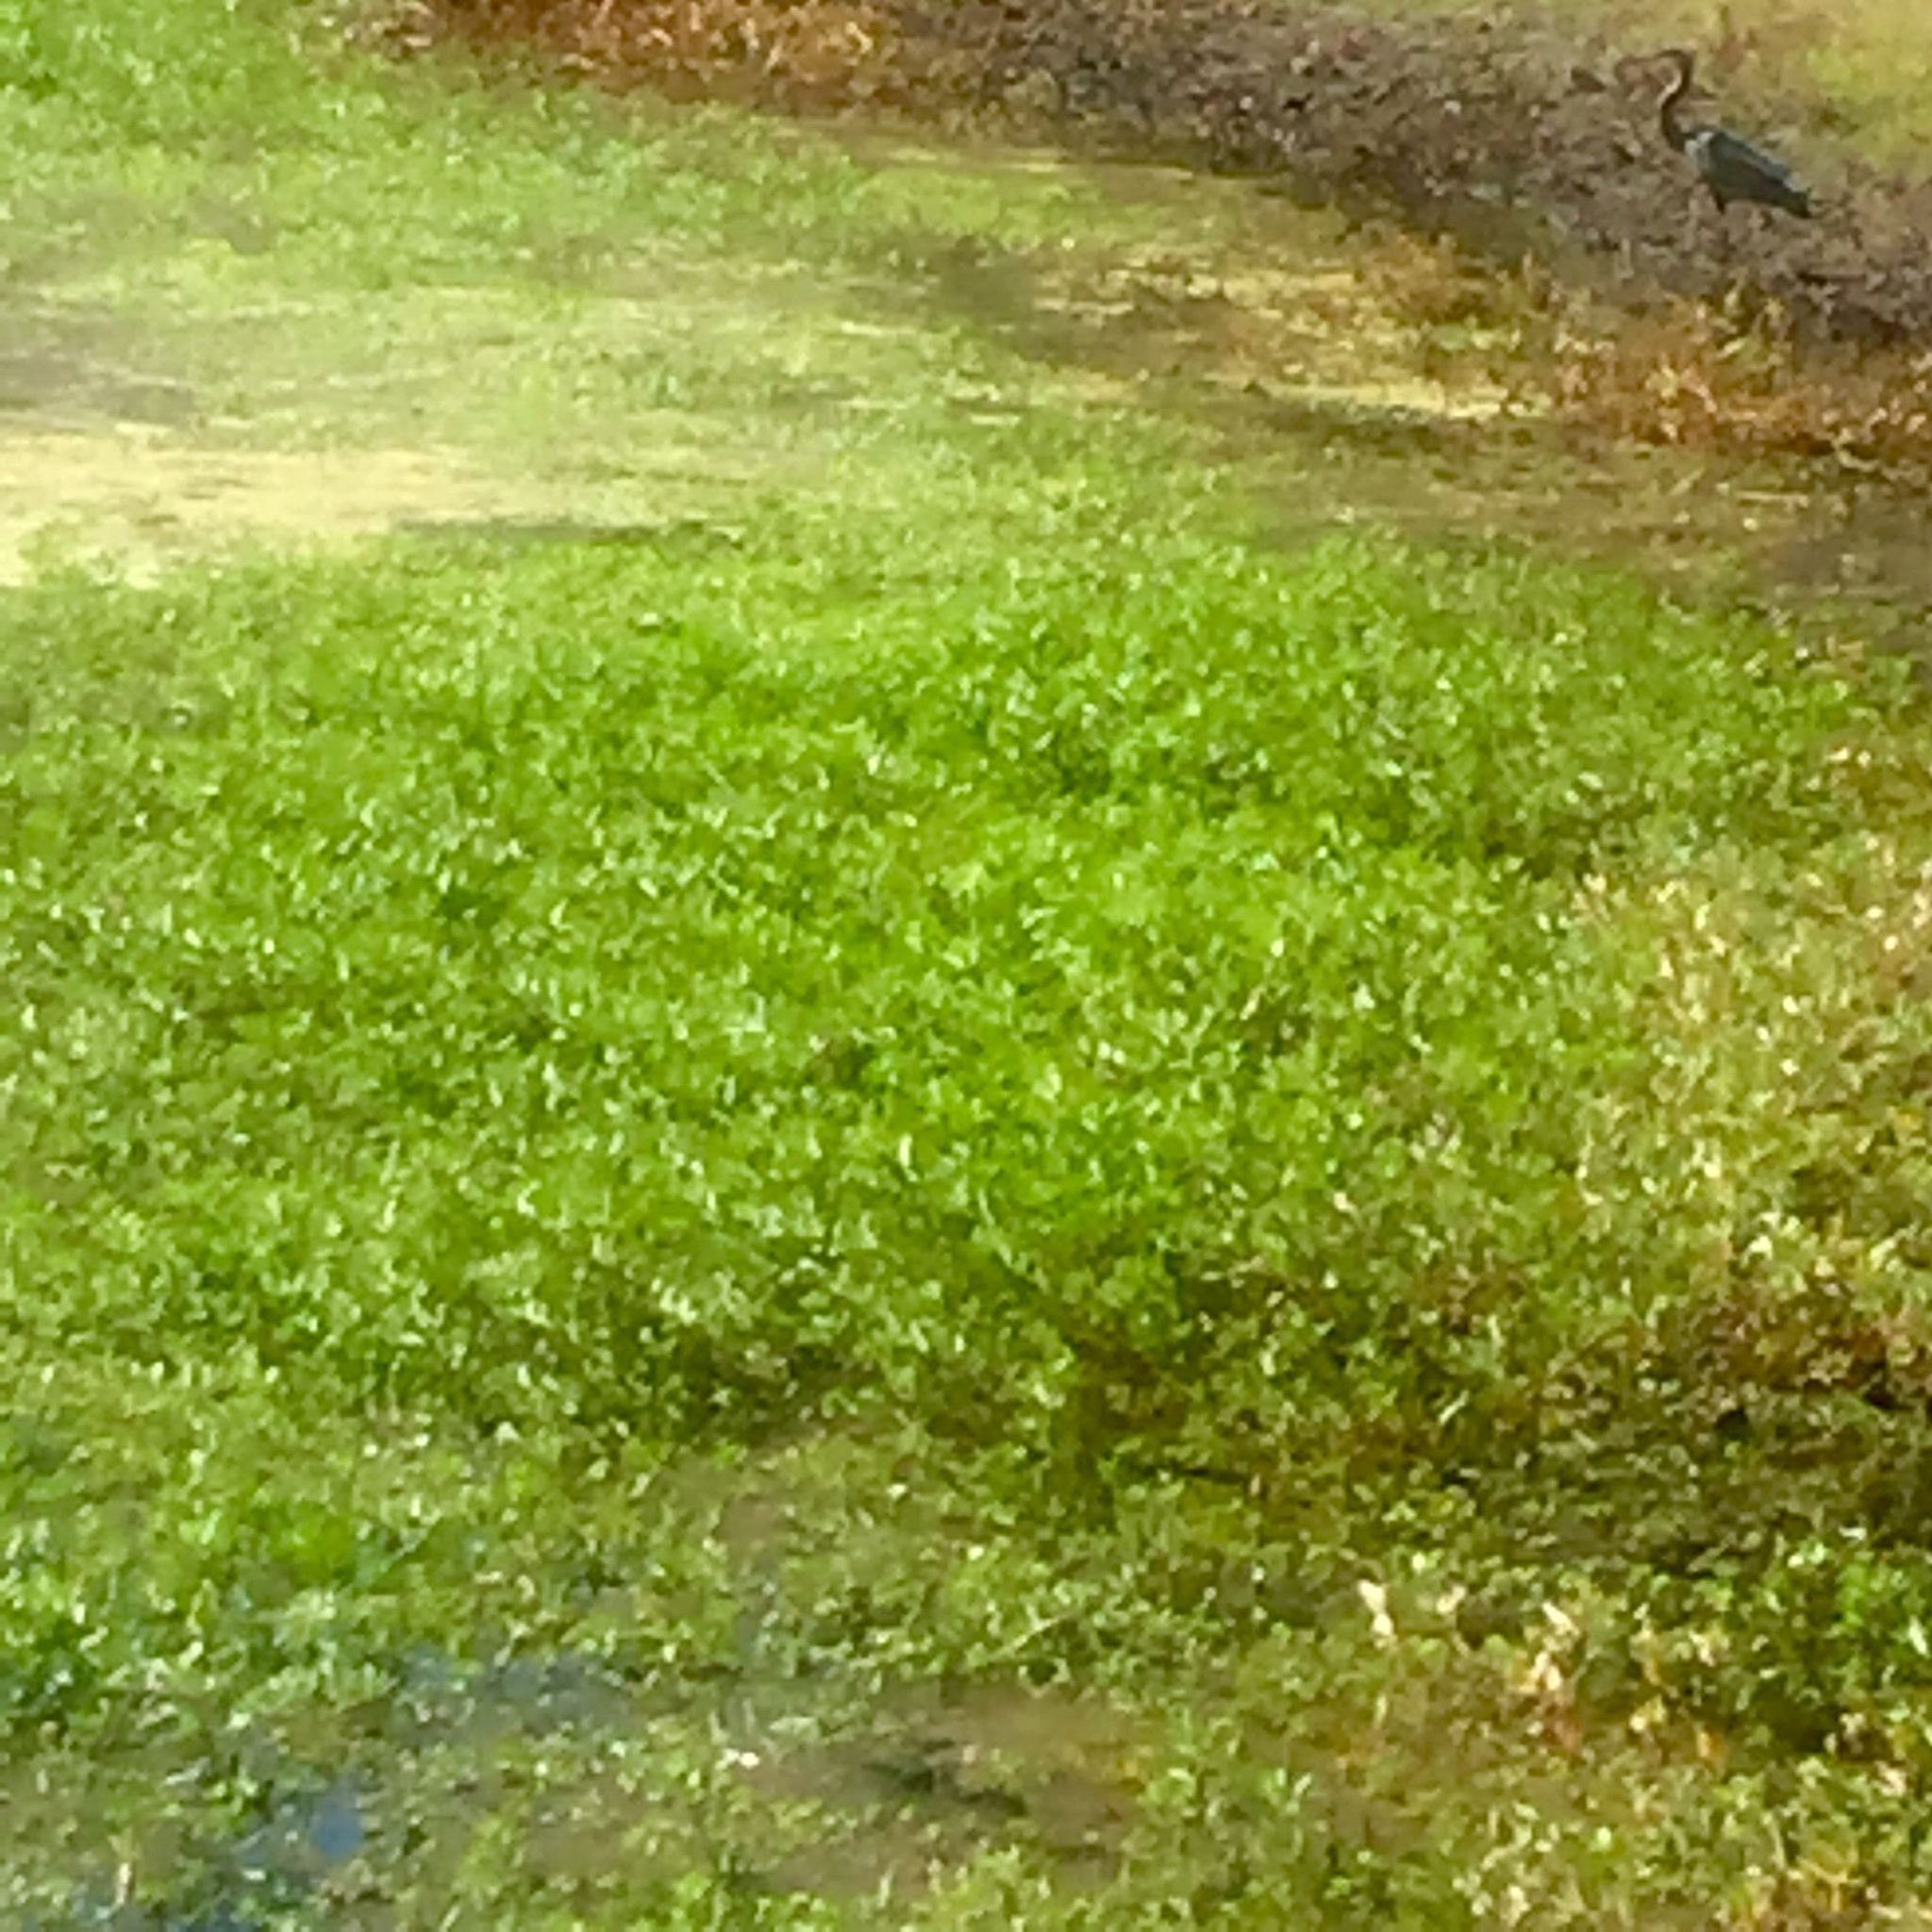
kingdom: Animalia
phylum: Chordata
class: Aves
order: Pelecaniformes
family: Ardeidae
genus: Ardea
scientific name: Ardea herodias
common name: Great blue heron
